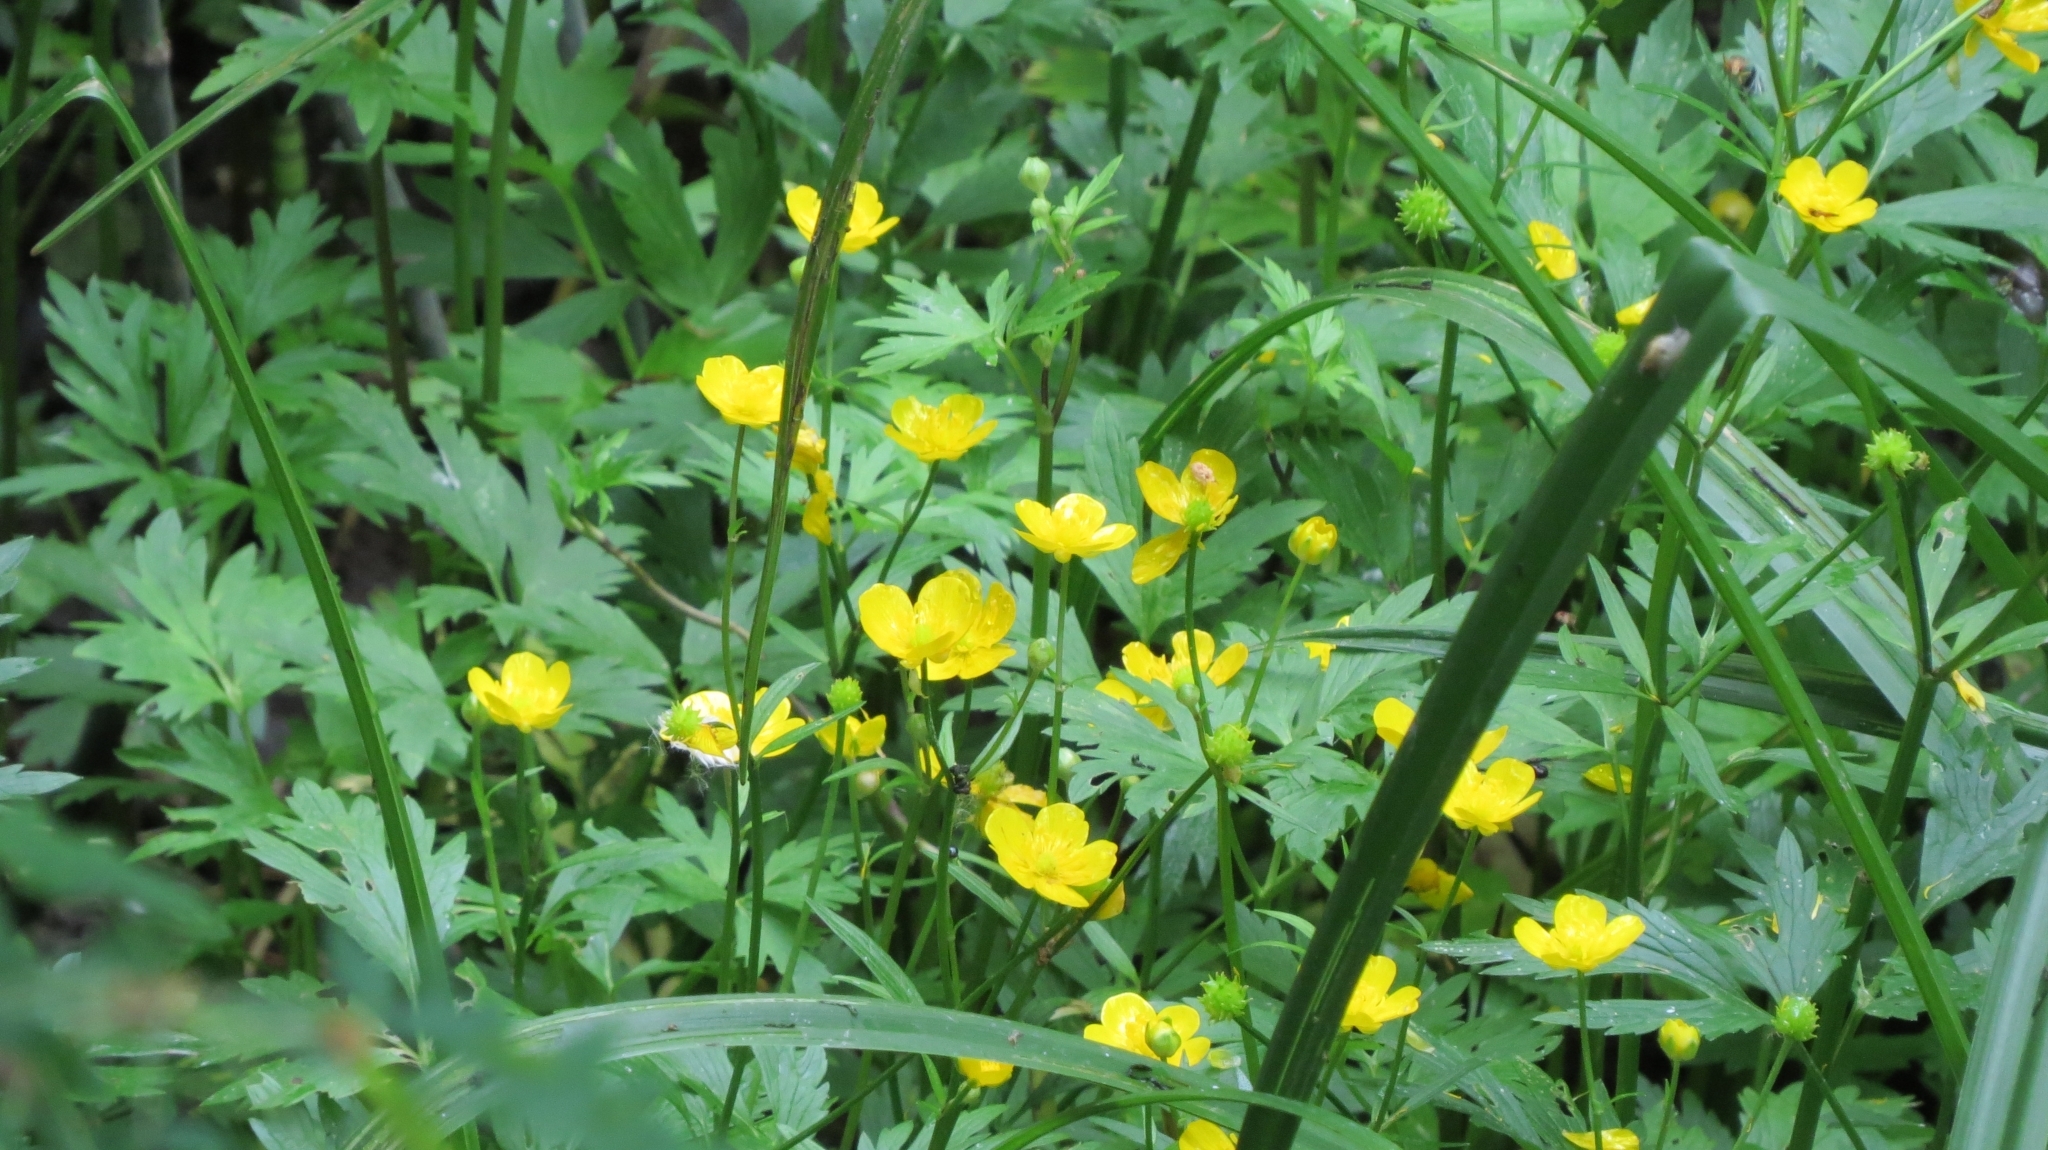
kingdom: Plantae
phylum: Tracheophyta
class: Magnoliopsida
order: Ranunculales
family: Ranunculaceae
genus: Ranunculus
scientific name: Ranunculus repens
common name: Creeping buttercup
